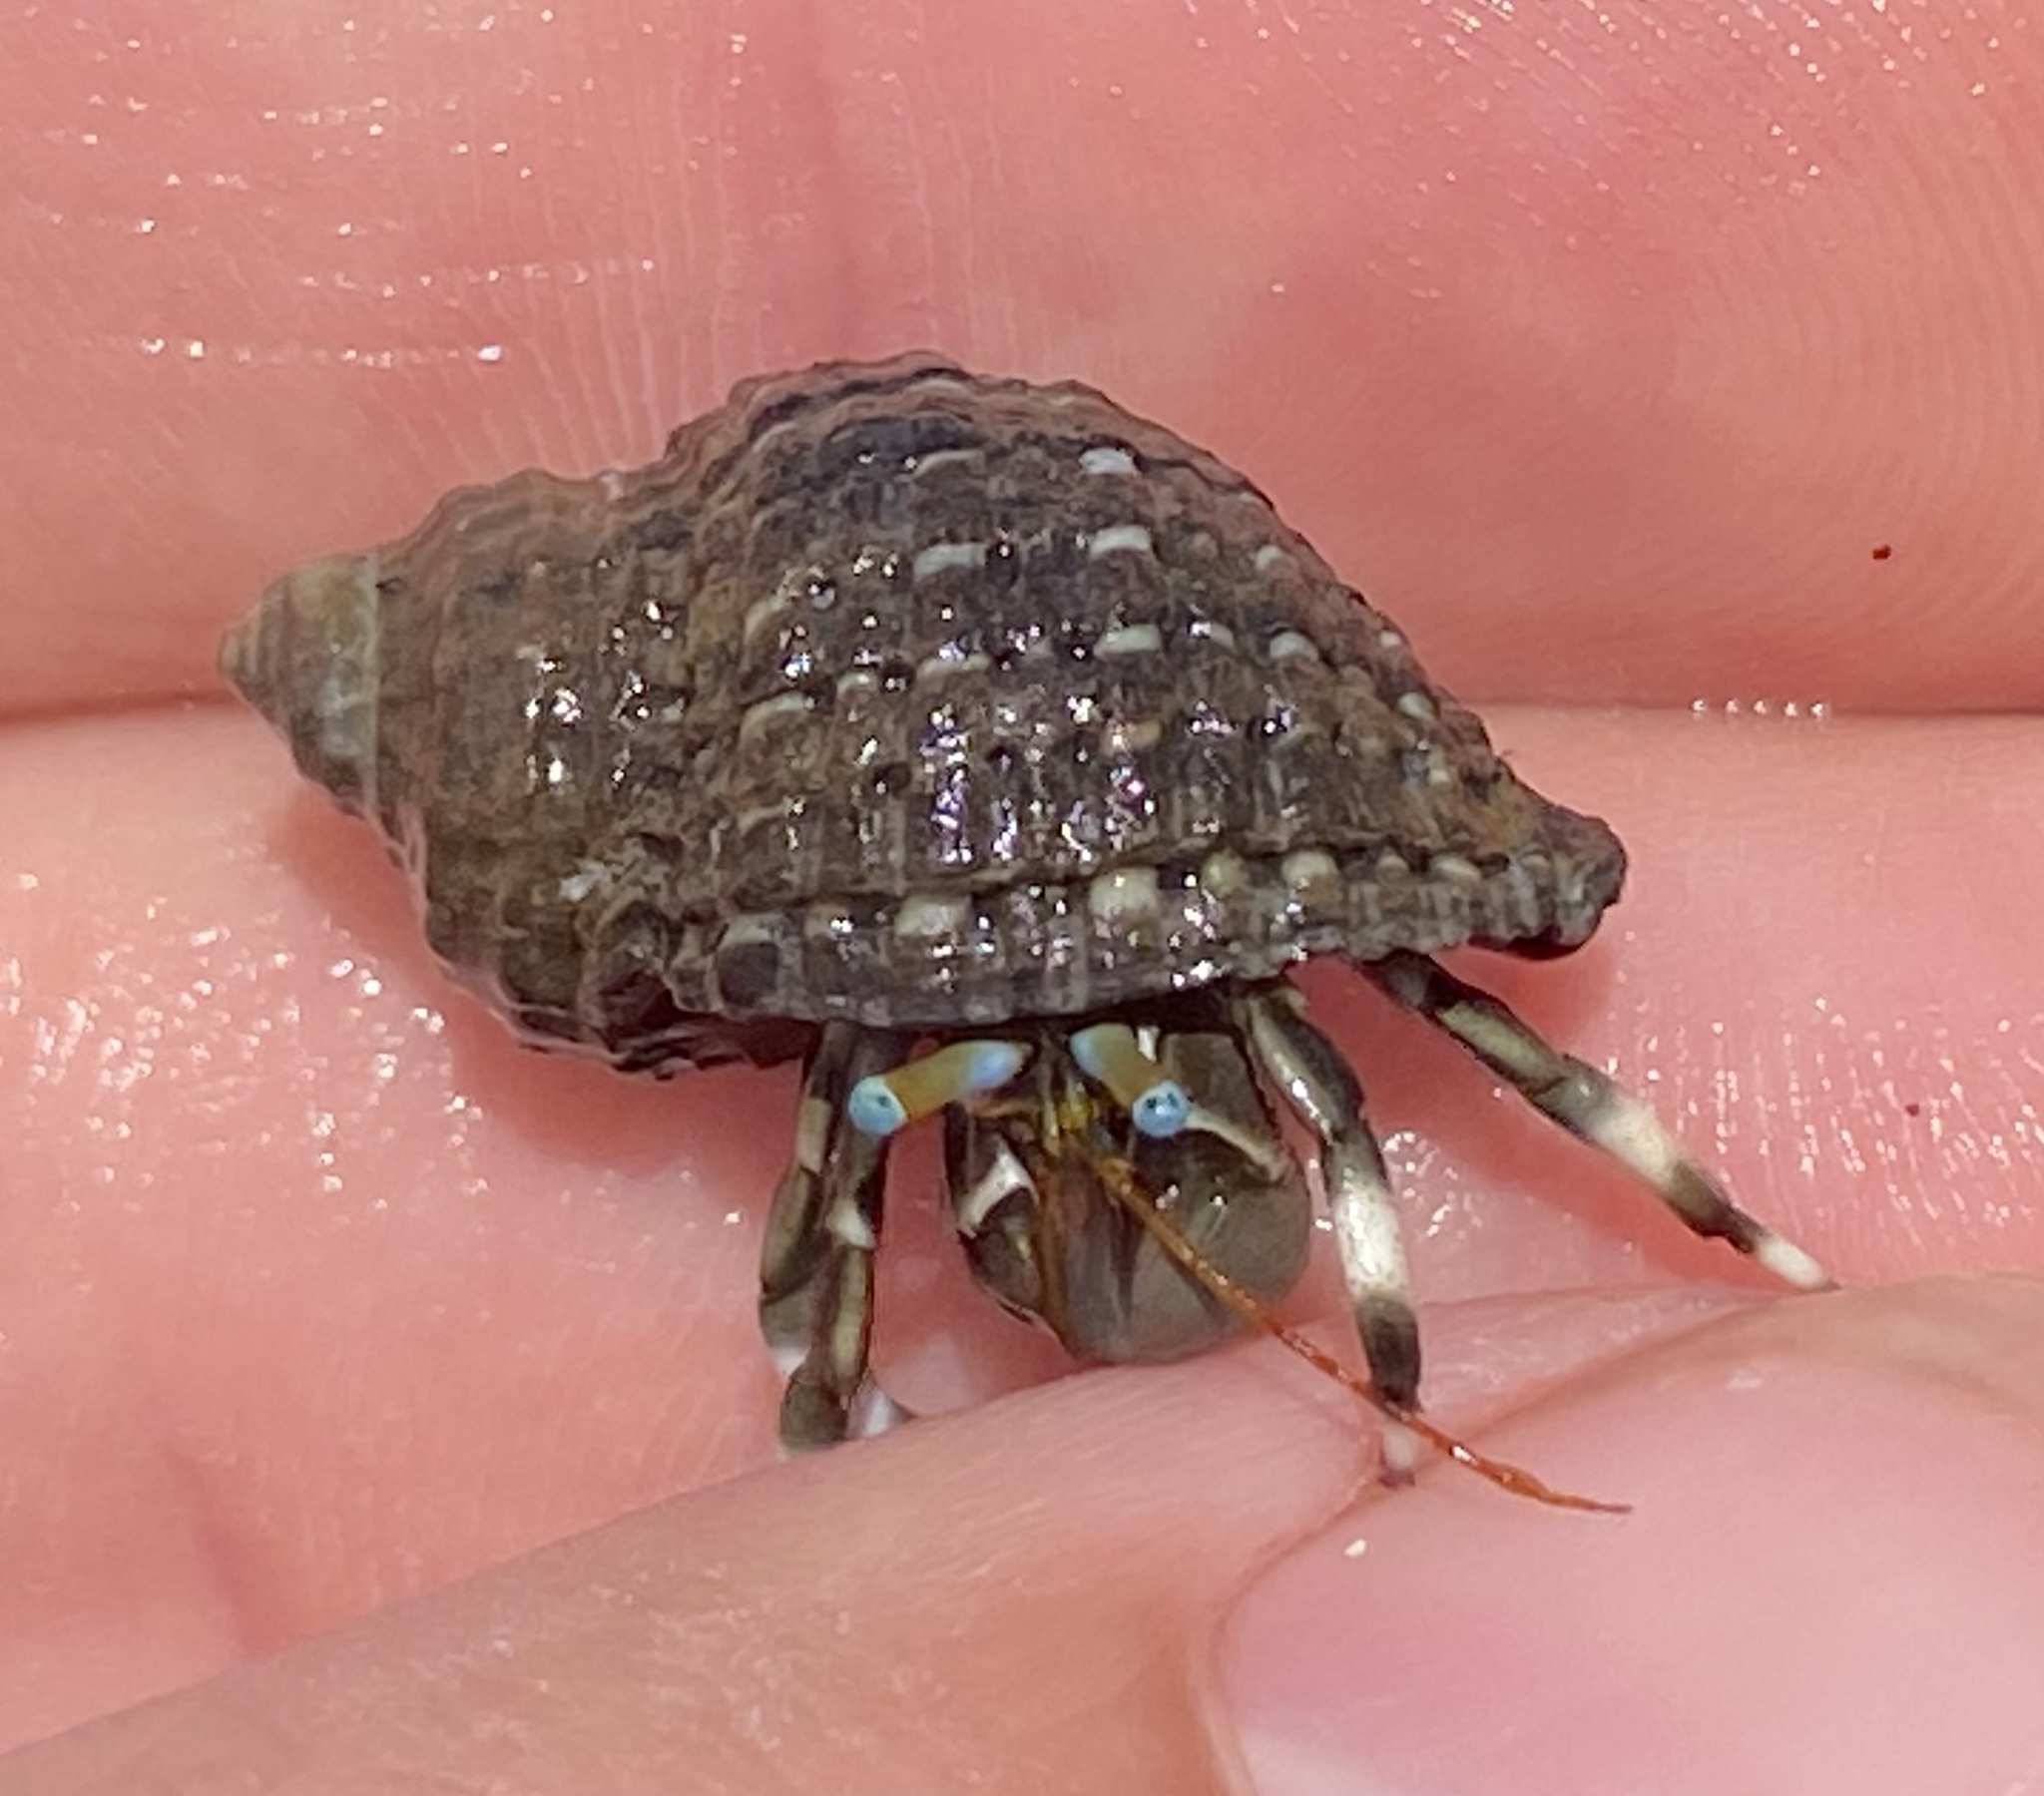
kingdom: Animalia
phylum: Arthropoda
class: Malacostraca
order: Decapoda
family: Diogenidae
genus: Calcinus
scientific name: Calcinus seurati
